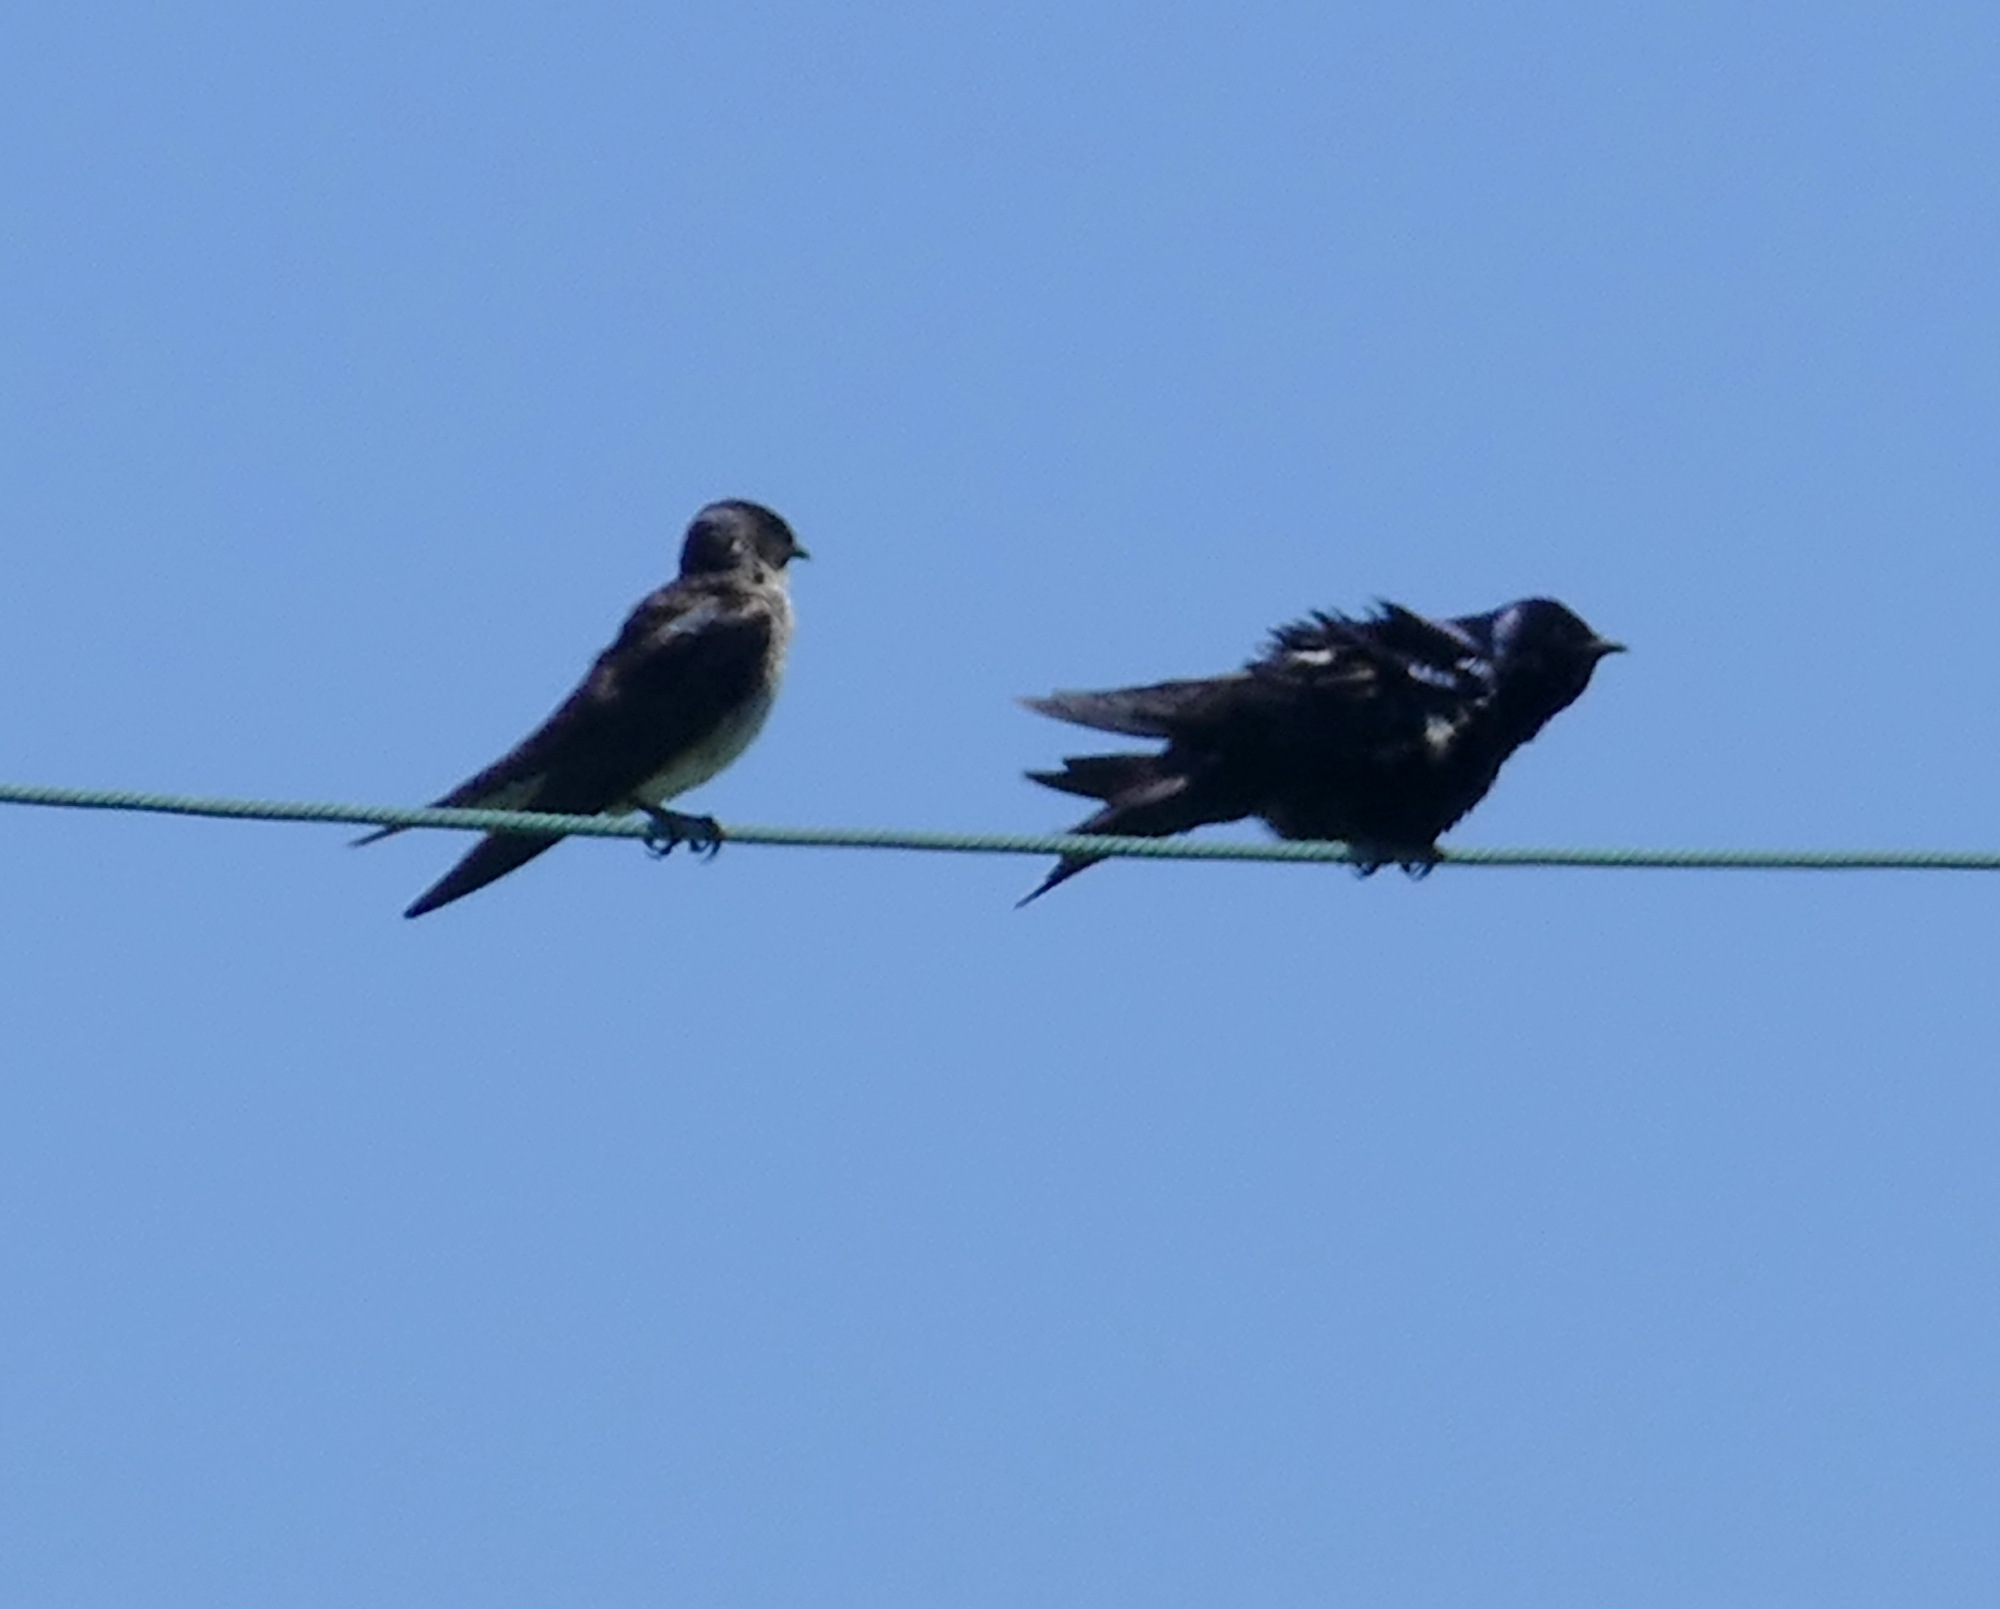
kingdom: Animalia
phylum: Chordata
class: Aves
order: Passeriformes
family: Hirundinidae
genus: Progne
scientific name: Progne subis
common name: Purple martin
